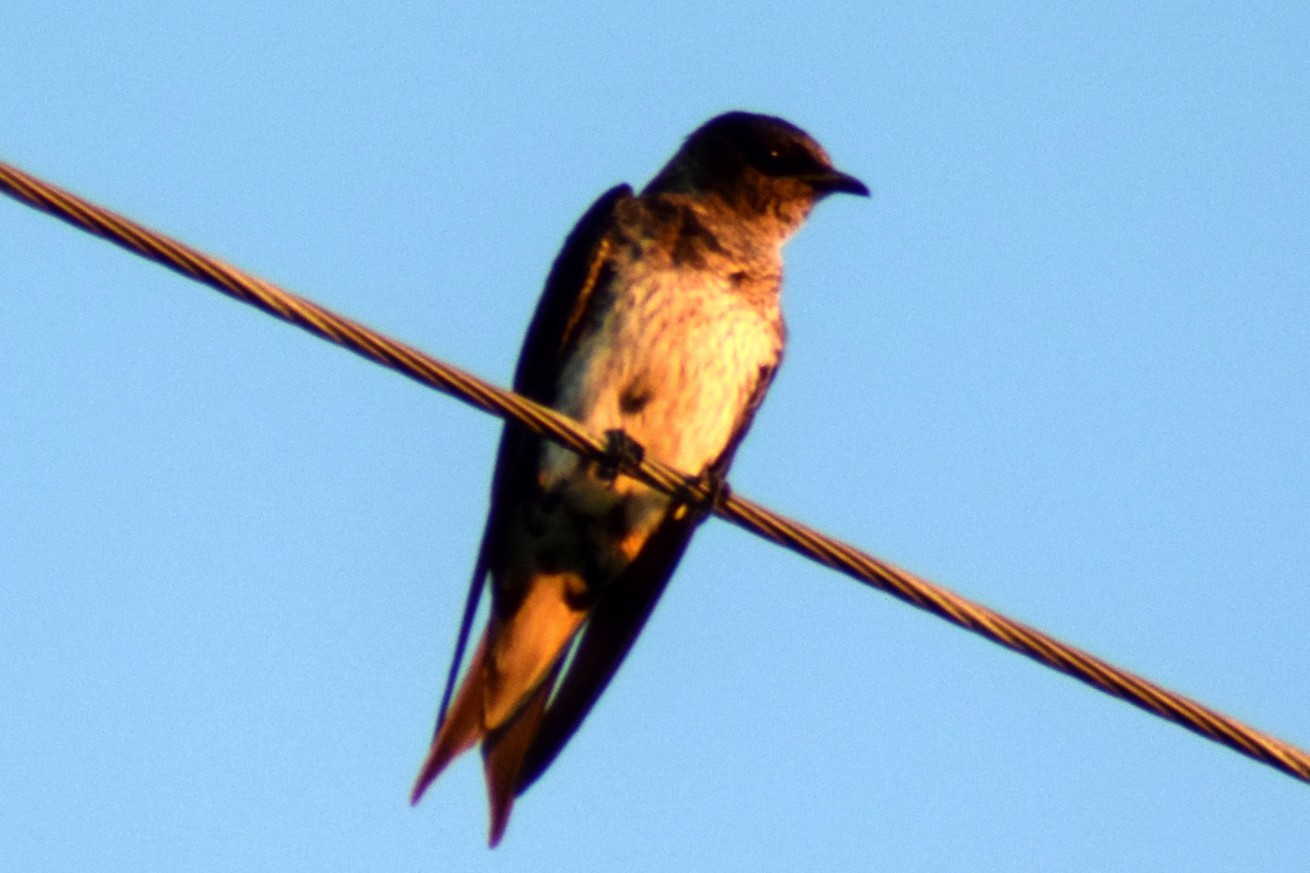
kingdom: Animalia
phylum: Chordata
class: Aves
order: Passeriformes
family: Hirundinidae
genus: Progne
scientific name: Progne subis
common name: Purple martin
